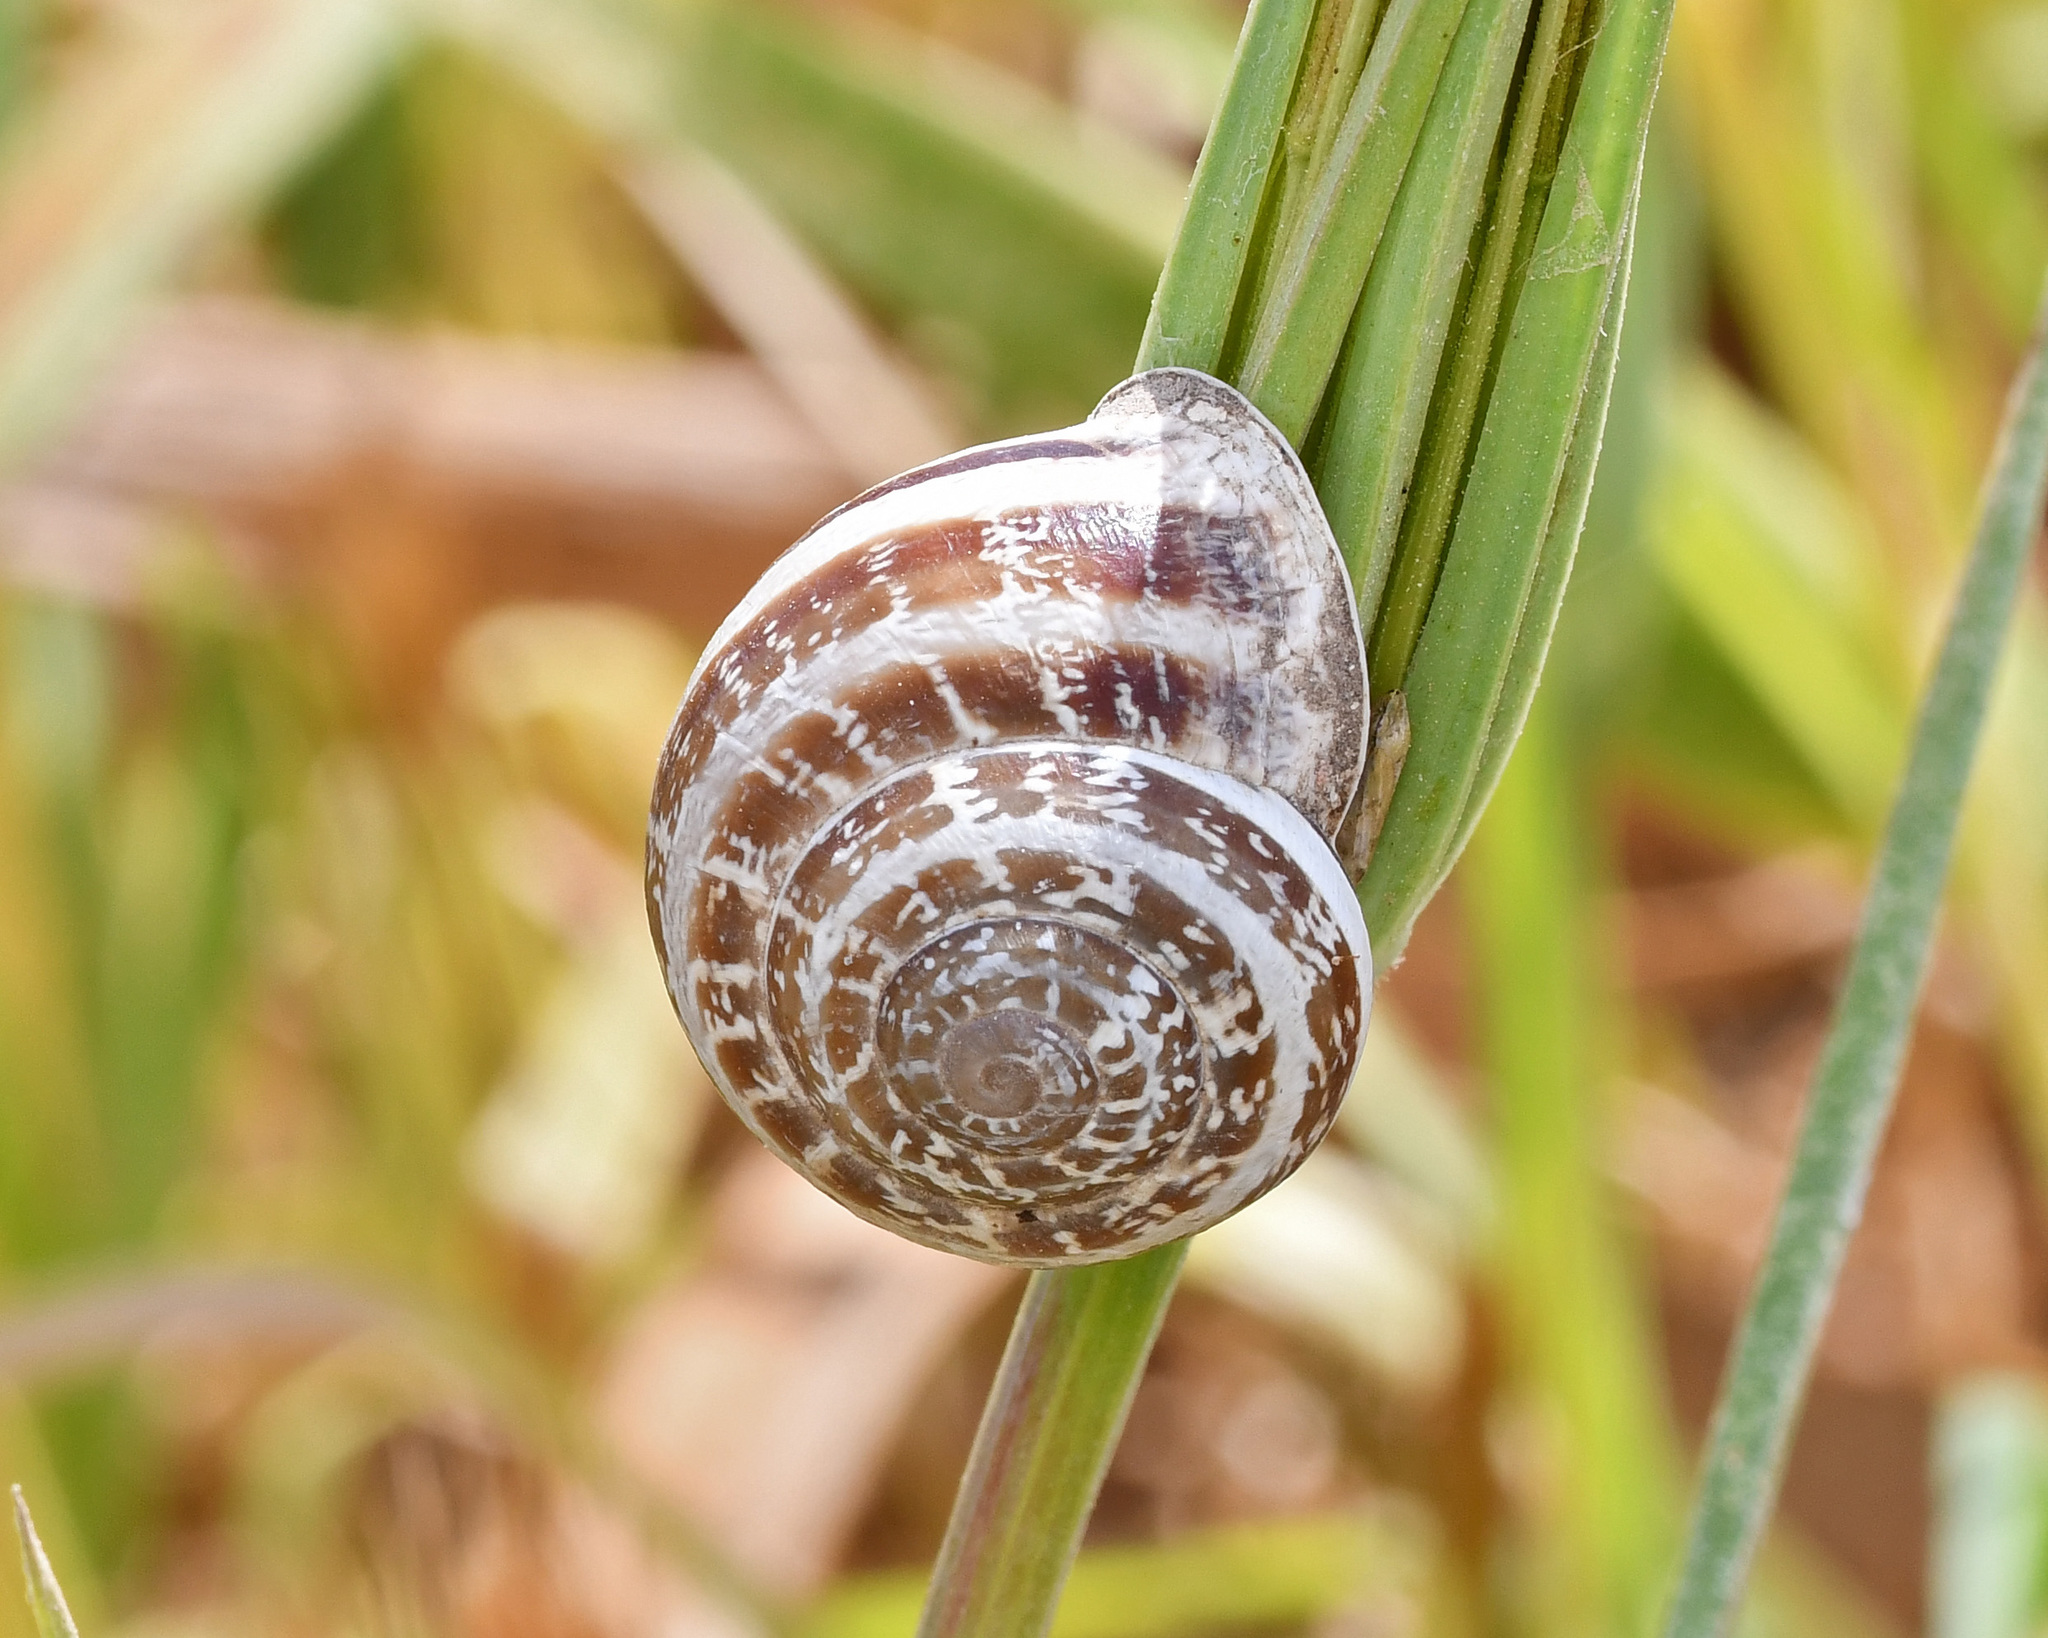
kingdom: Animalia
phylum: Mollusca
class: Gastropoda
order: Stylommatophora
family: Helicidae
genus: Eobania
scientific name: Eobania vermiculata
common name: Chocolateband snail
